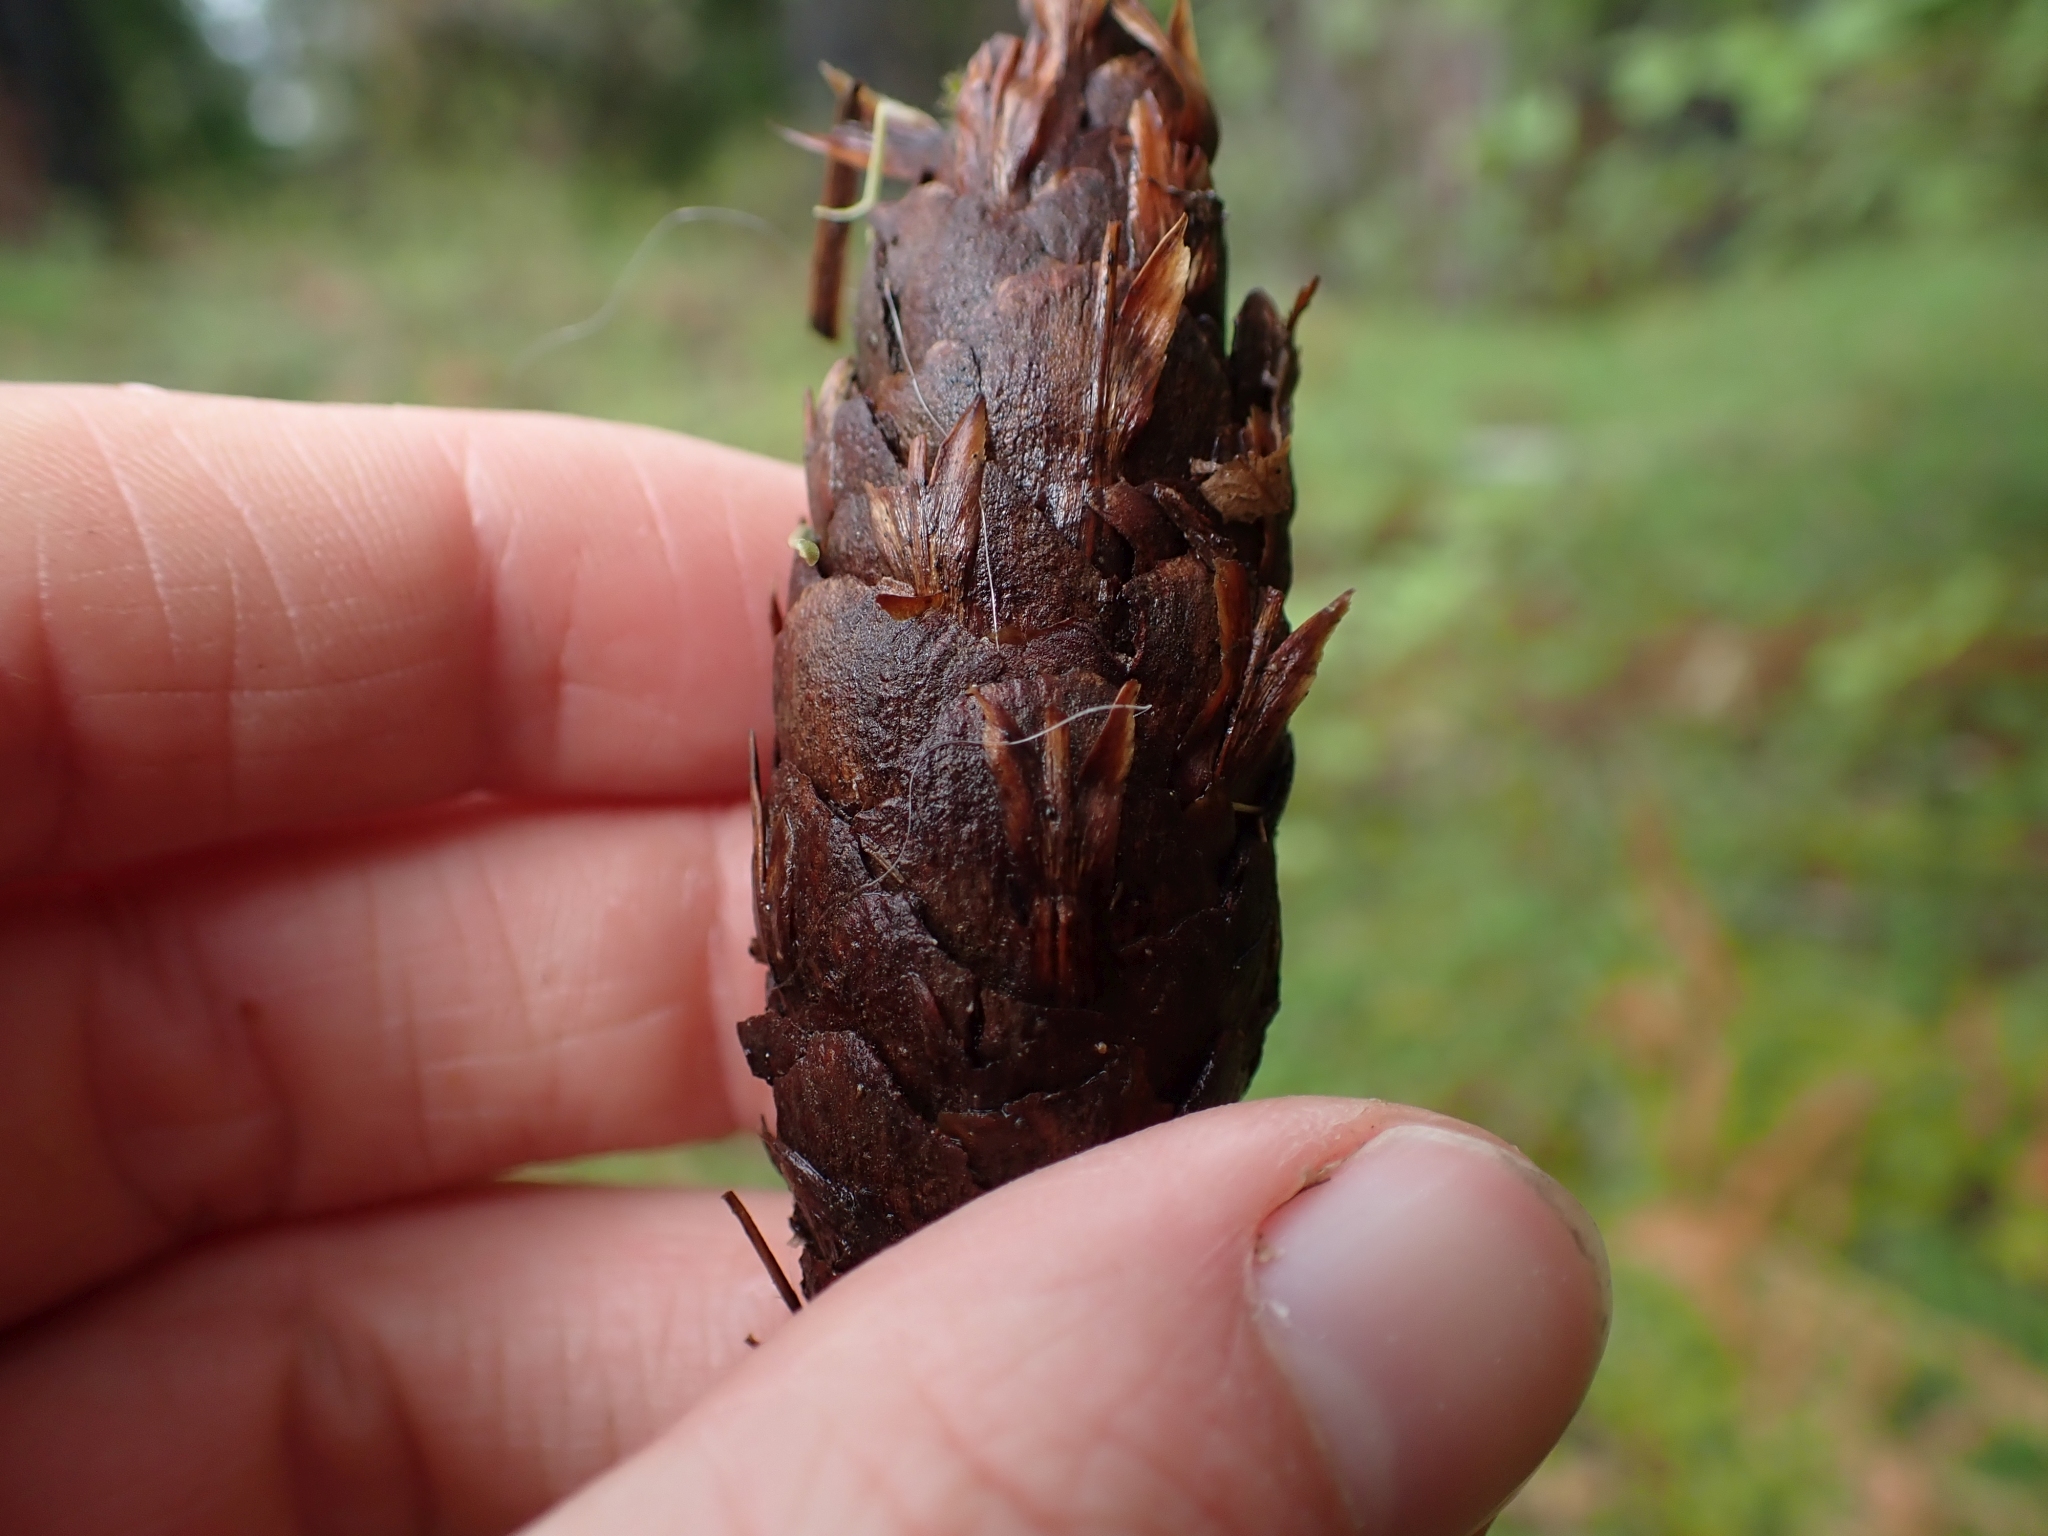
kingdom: Plantae
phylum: Tracheophyta
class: Pinopsida
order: Pinales
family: Pinaceae
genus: Pseudotsuga
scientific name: Pseudotsuga menziesii
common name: Douglas fir
